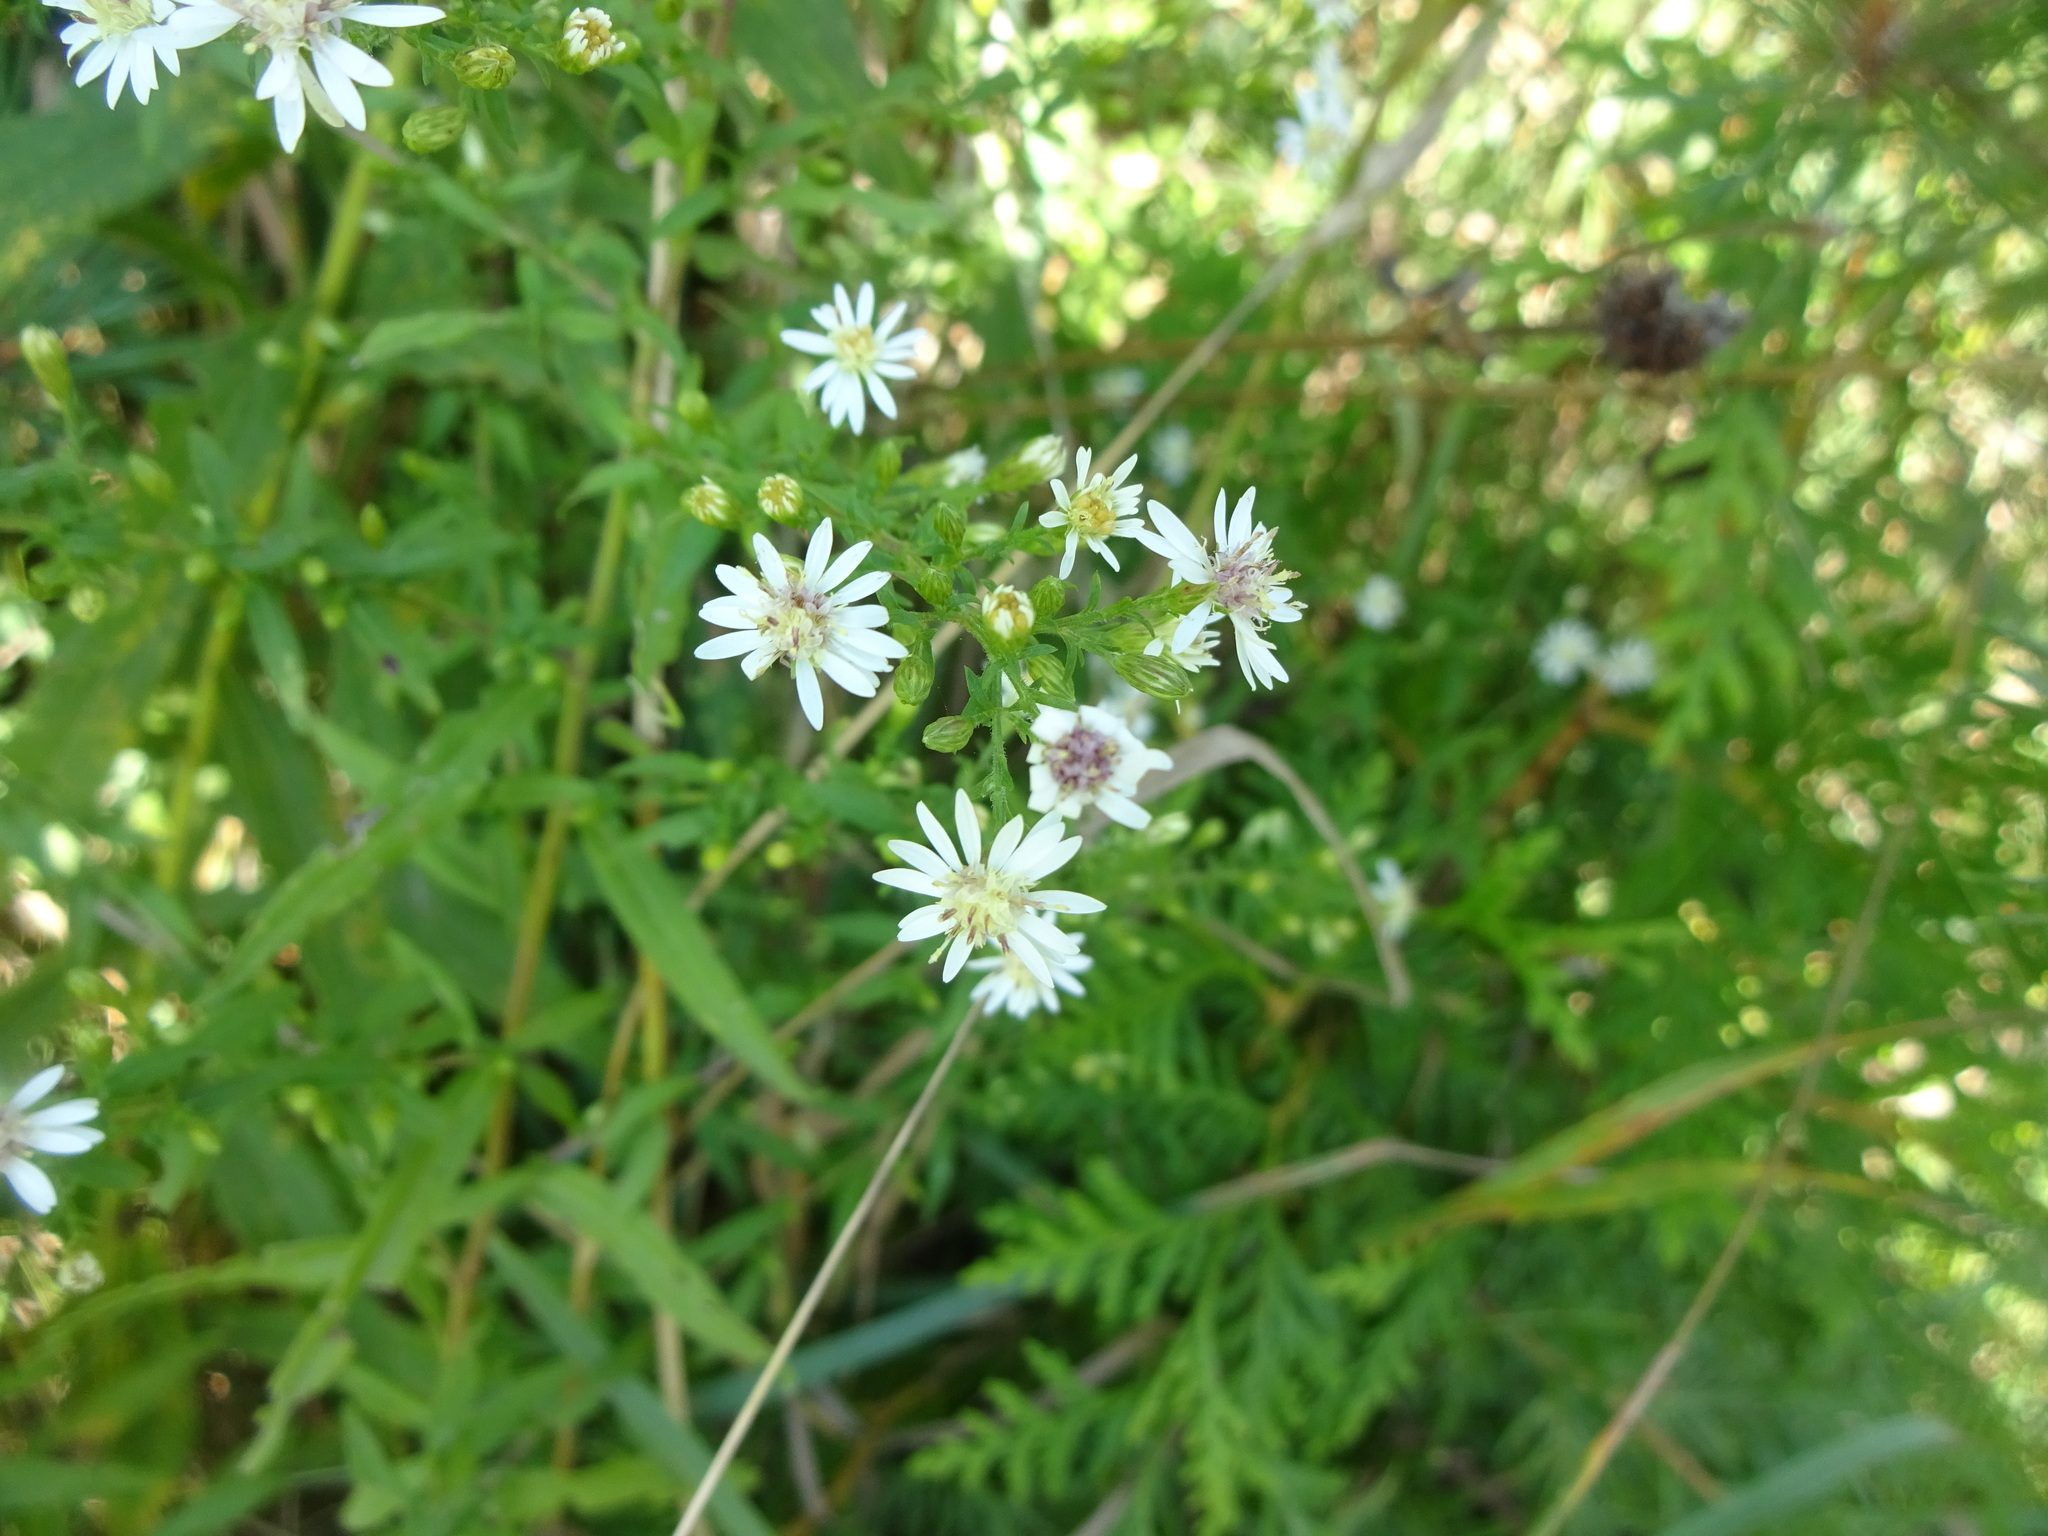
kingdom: Plantae
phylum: Tracheophyta
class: Magnoliopsida
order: Asterales
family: Asteraceae
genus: Symphyotrichum
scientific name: Symphyotrichum lateriflorum
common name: Calico aster
